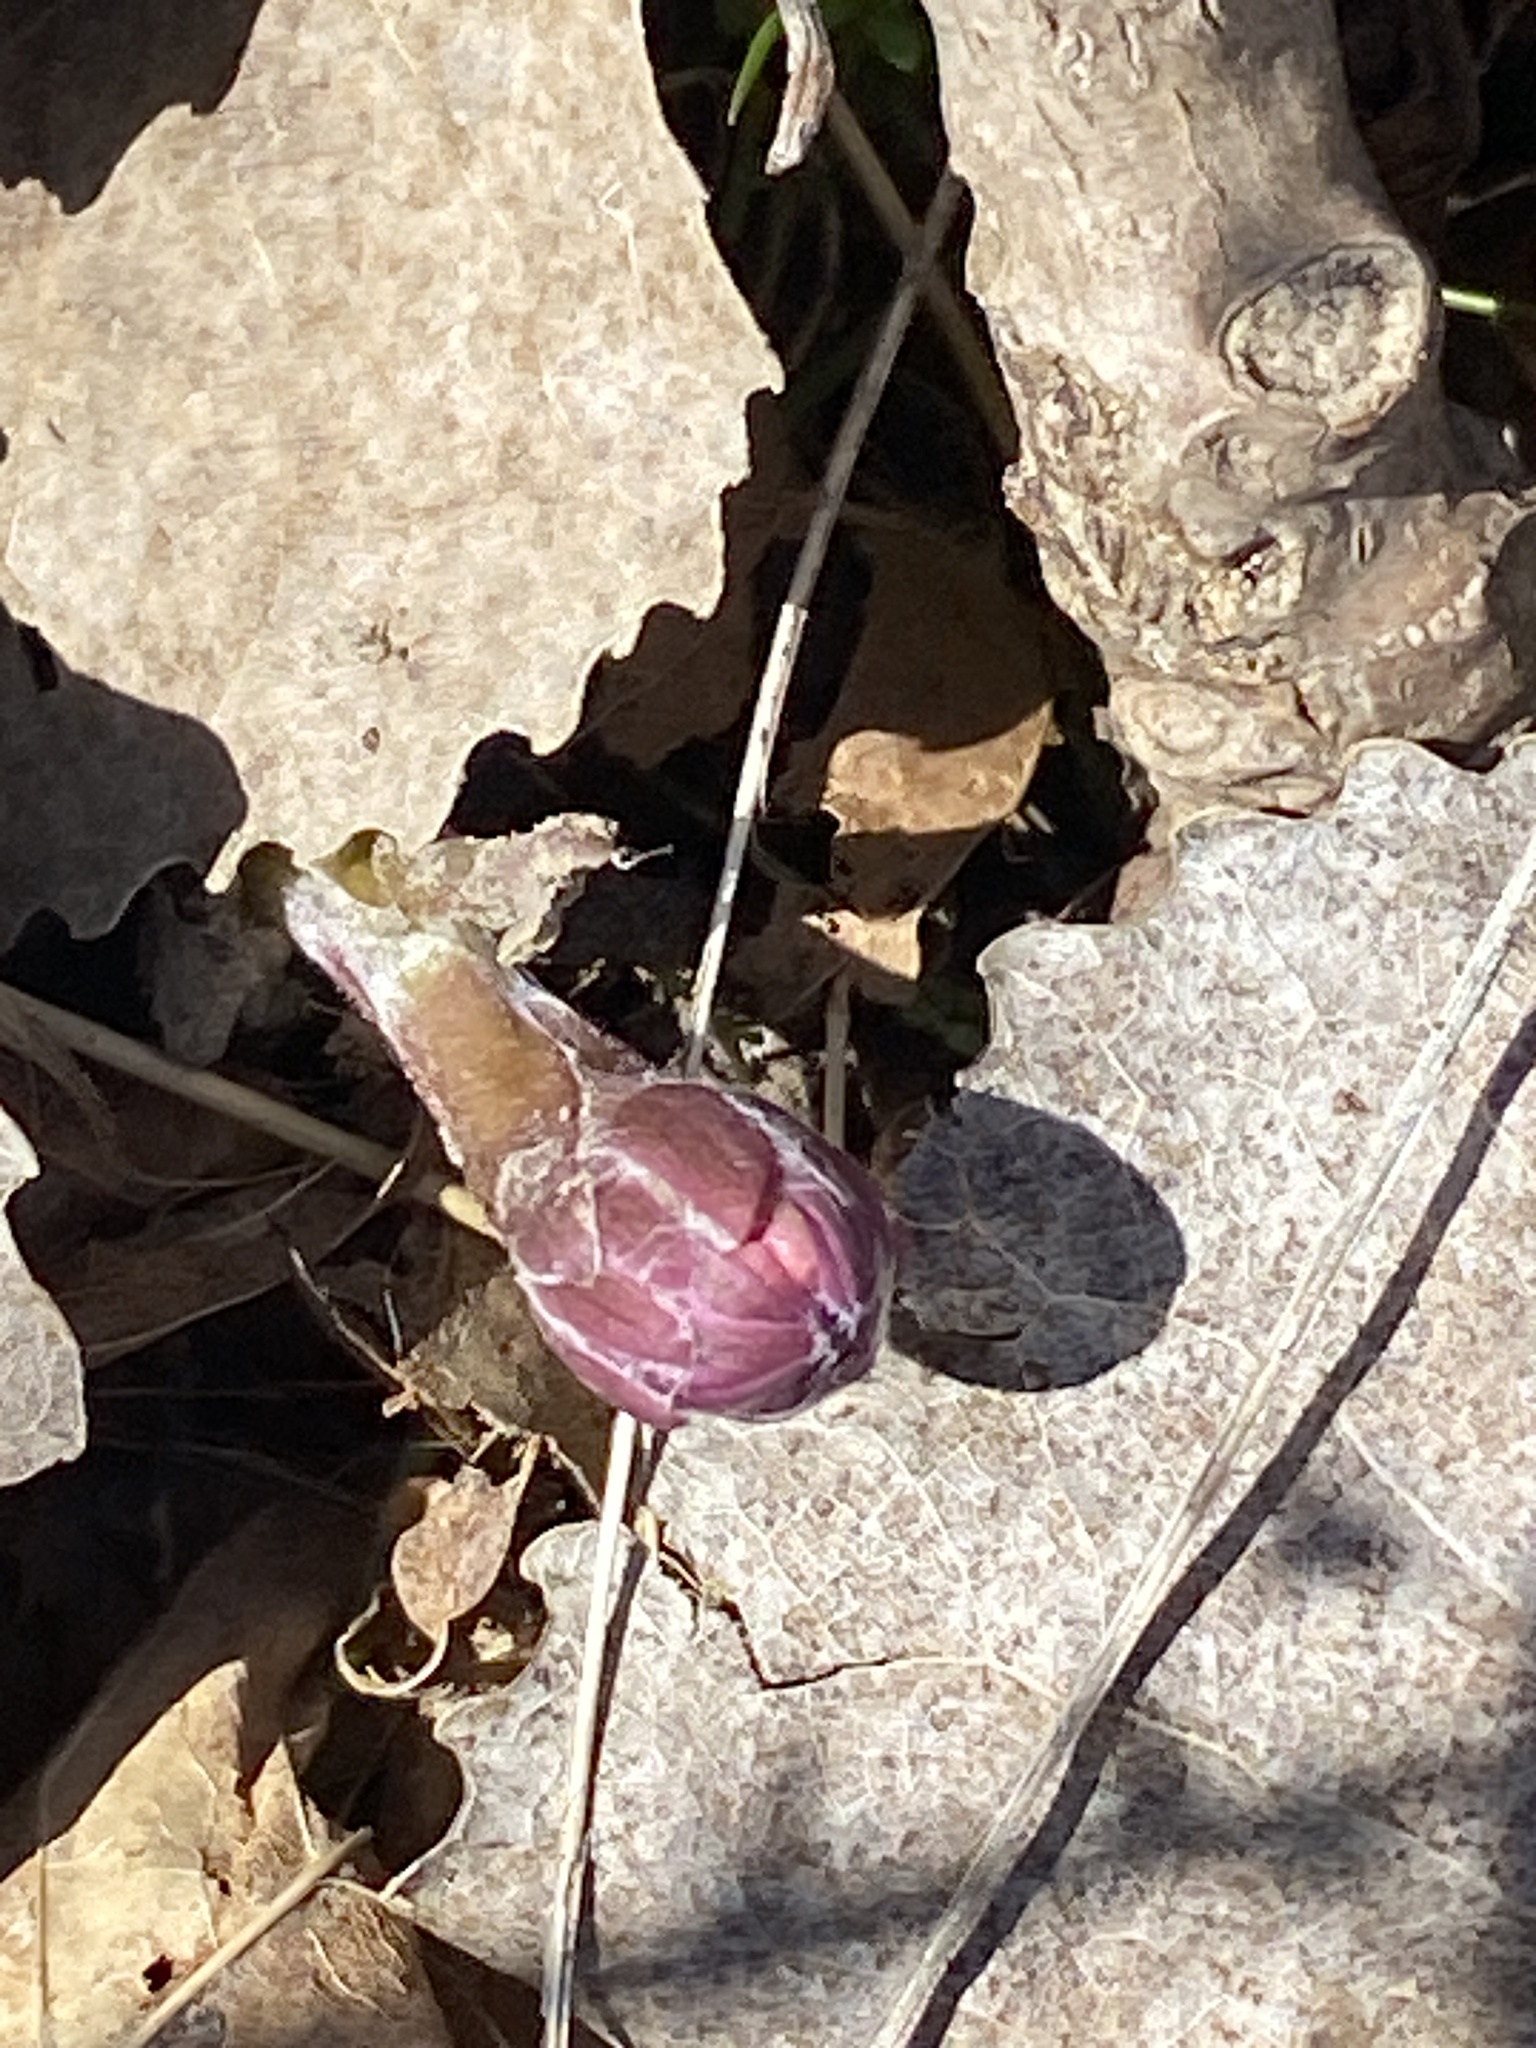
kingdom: Plantae
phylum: Tracheophyta
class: Magnoliopsida
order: Asterales
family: Asteraceae
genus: Tussilago
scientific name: Tussilago farfara
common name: Coltsfoot
